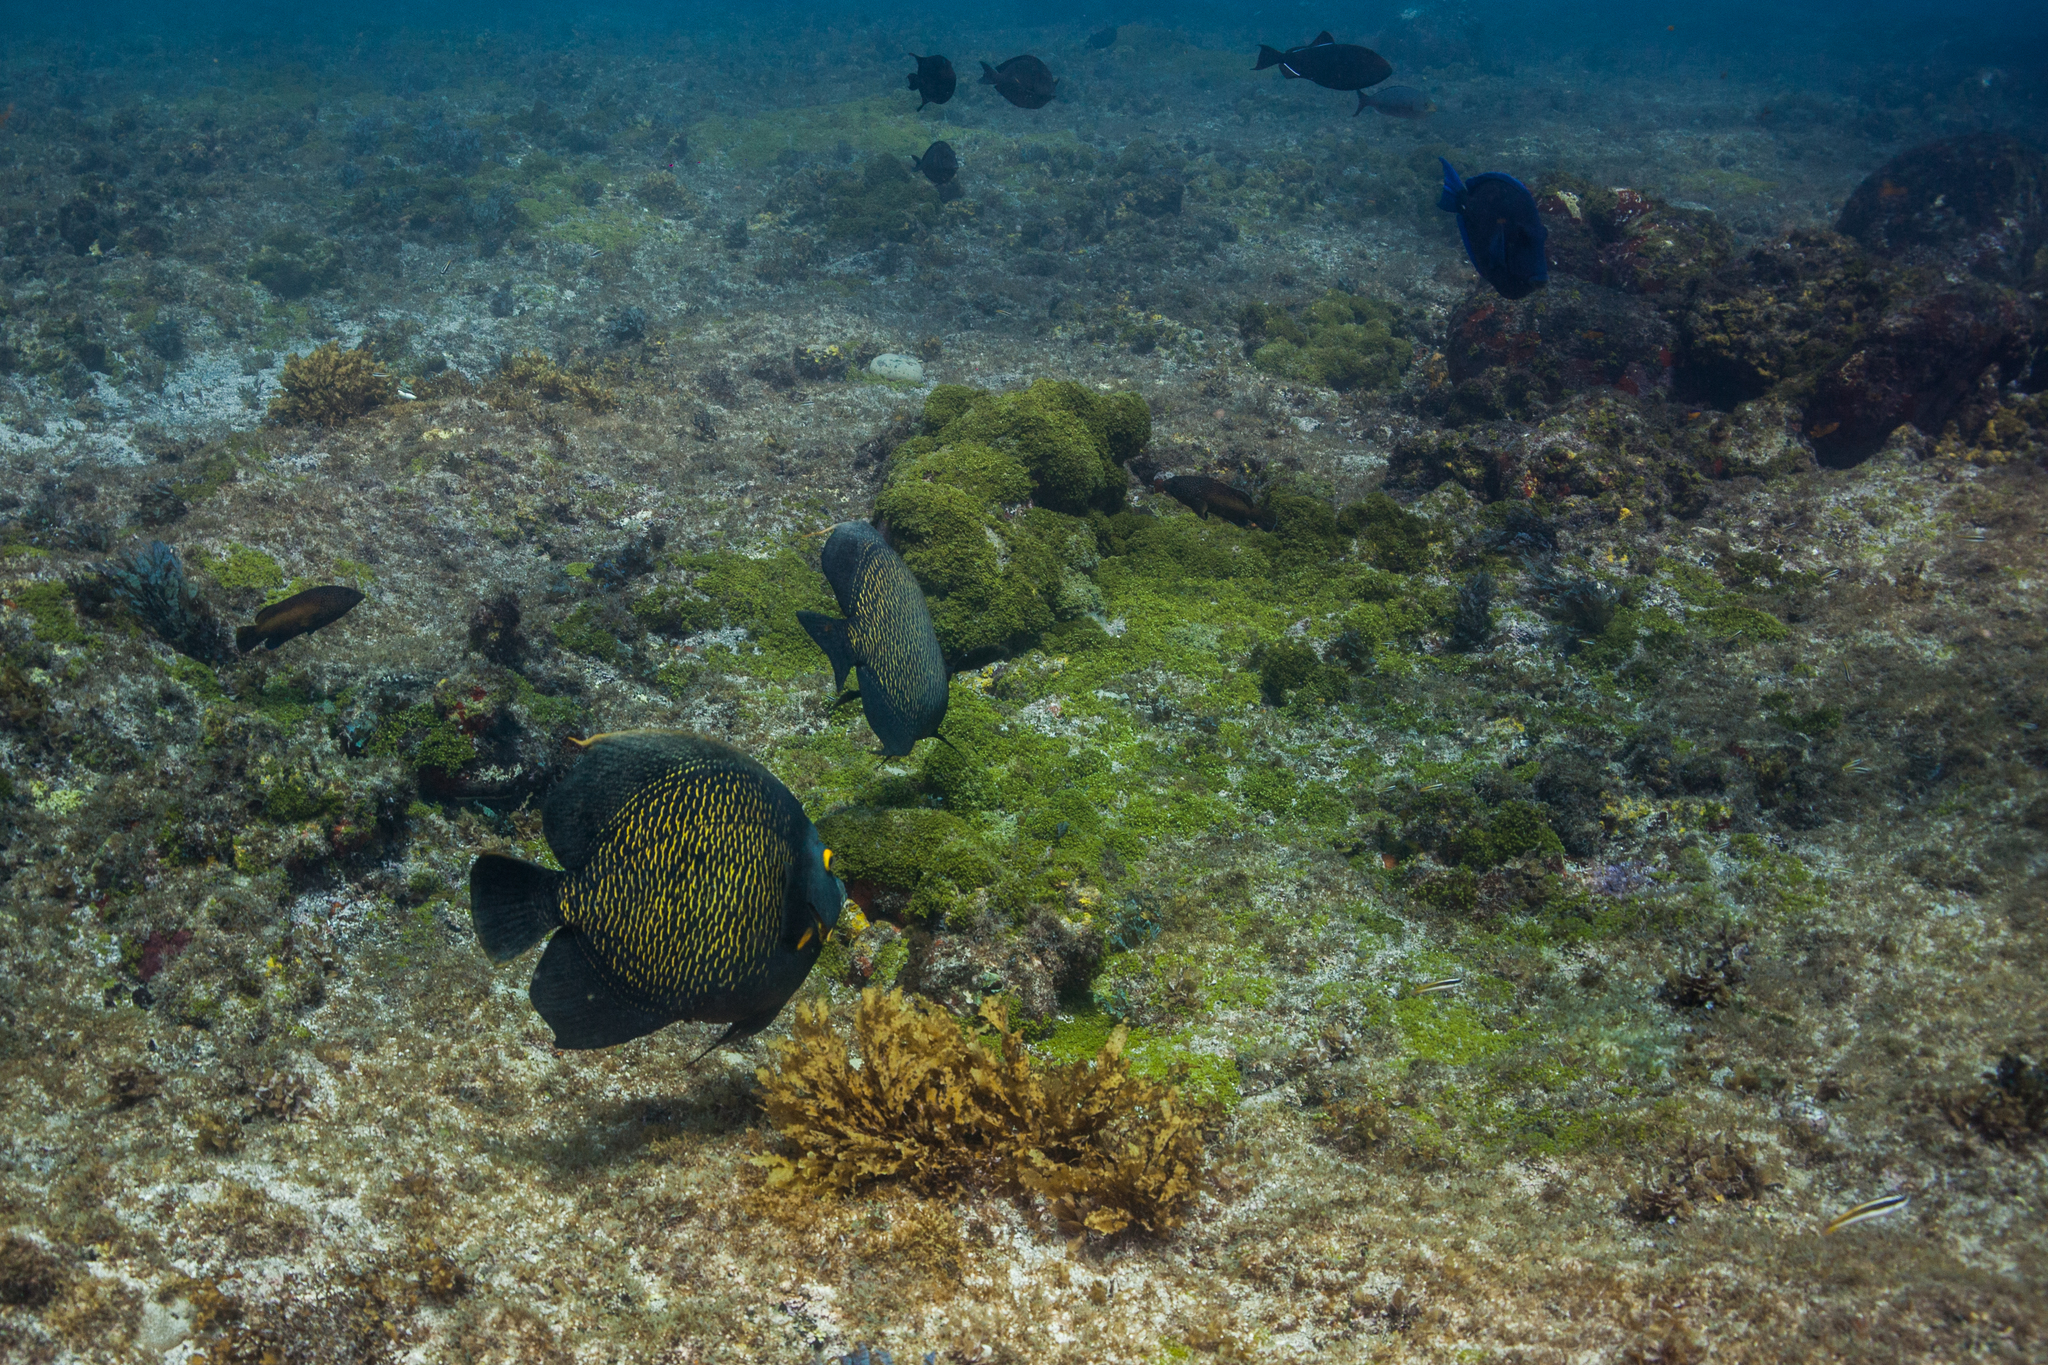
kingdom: Animalia
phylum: Chordata
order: Perciformes
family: Pomacanthidae
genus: Pomacanthus
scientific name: Pomacanthus paru
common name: French angelfish
